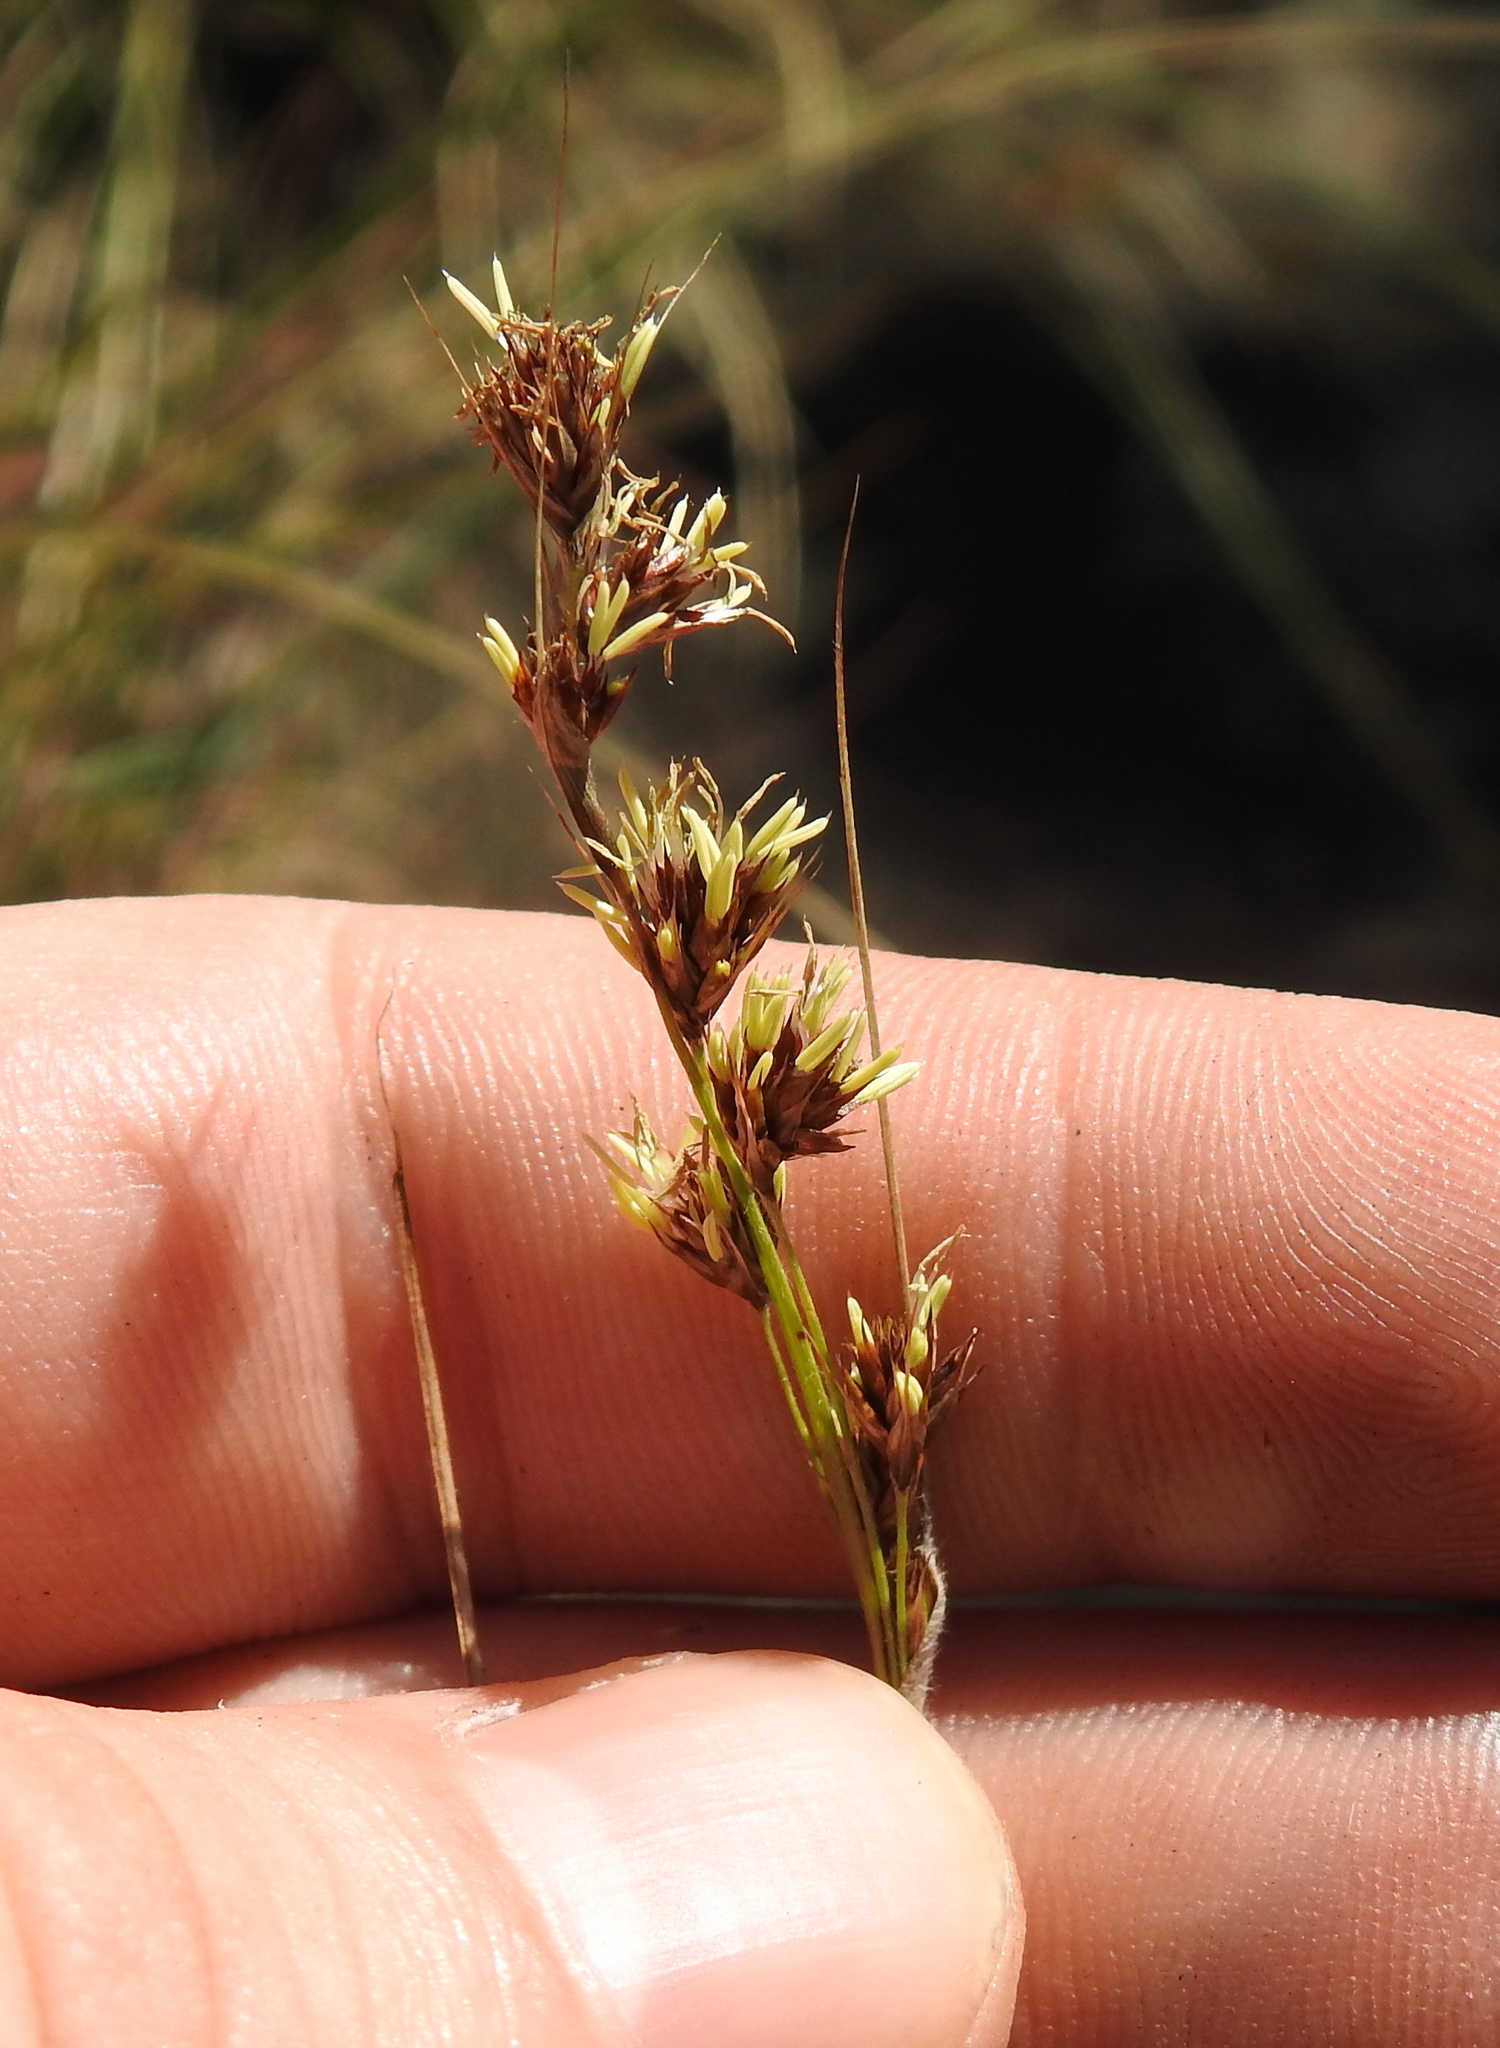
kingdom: Plantae
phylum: Tracheophyta
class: Liliopsida
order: Poales
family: Cyperaceae
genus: Coleochloa
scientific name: Coleochloa setifera
